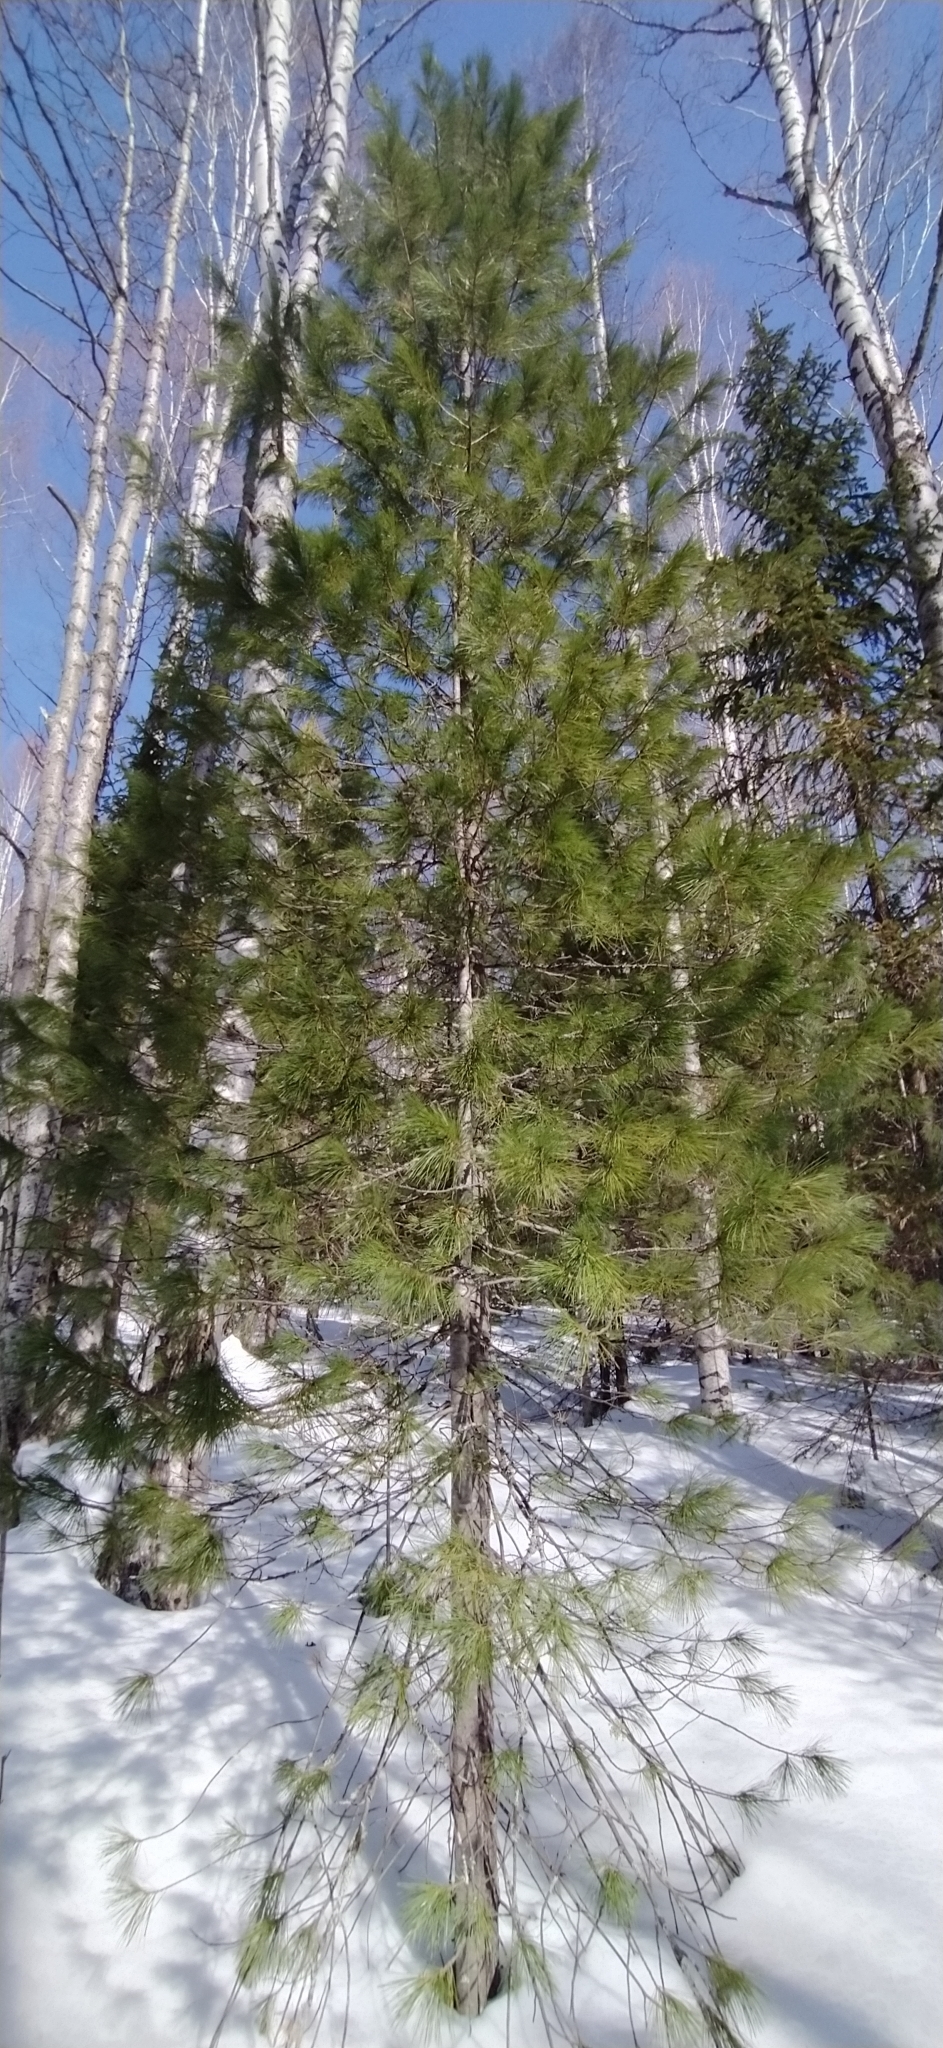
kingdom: Plantae
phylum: Tracheophyta
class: Pinopsida
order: Pinales
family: Pinaceae
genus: Pinus
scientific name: Pinus sibirica
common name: Siberian pine
